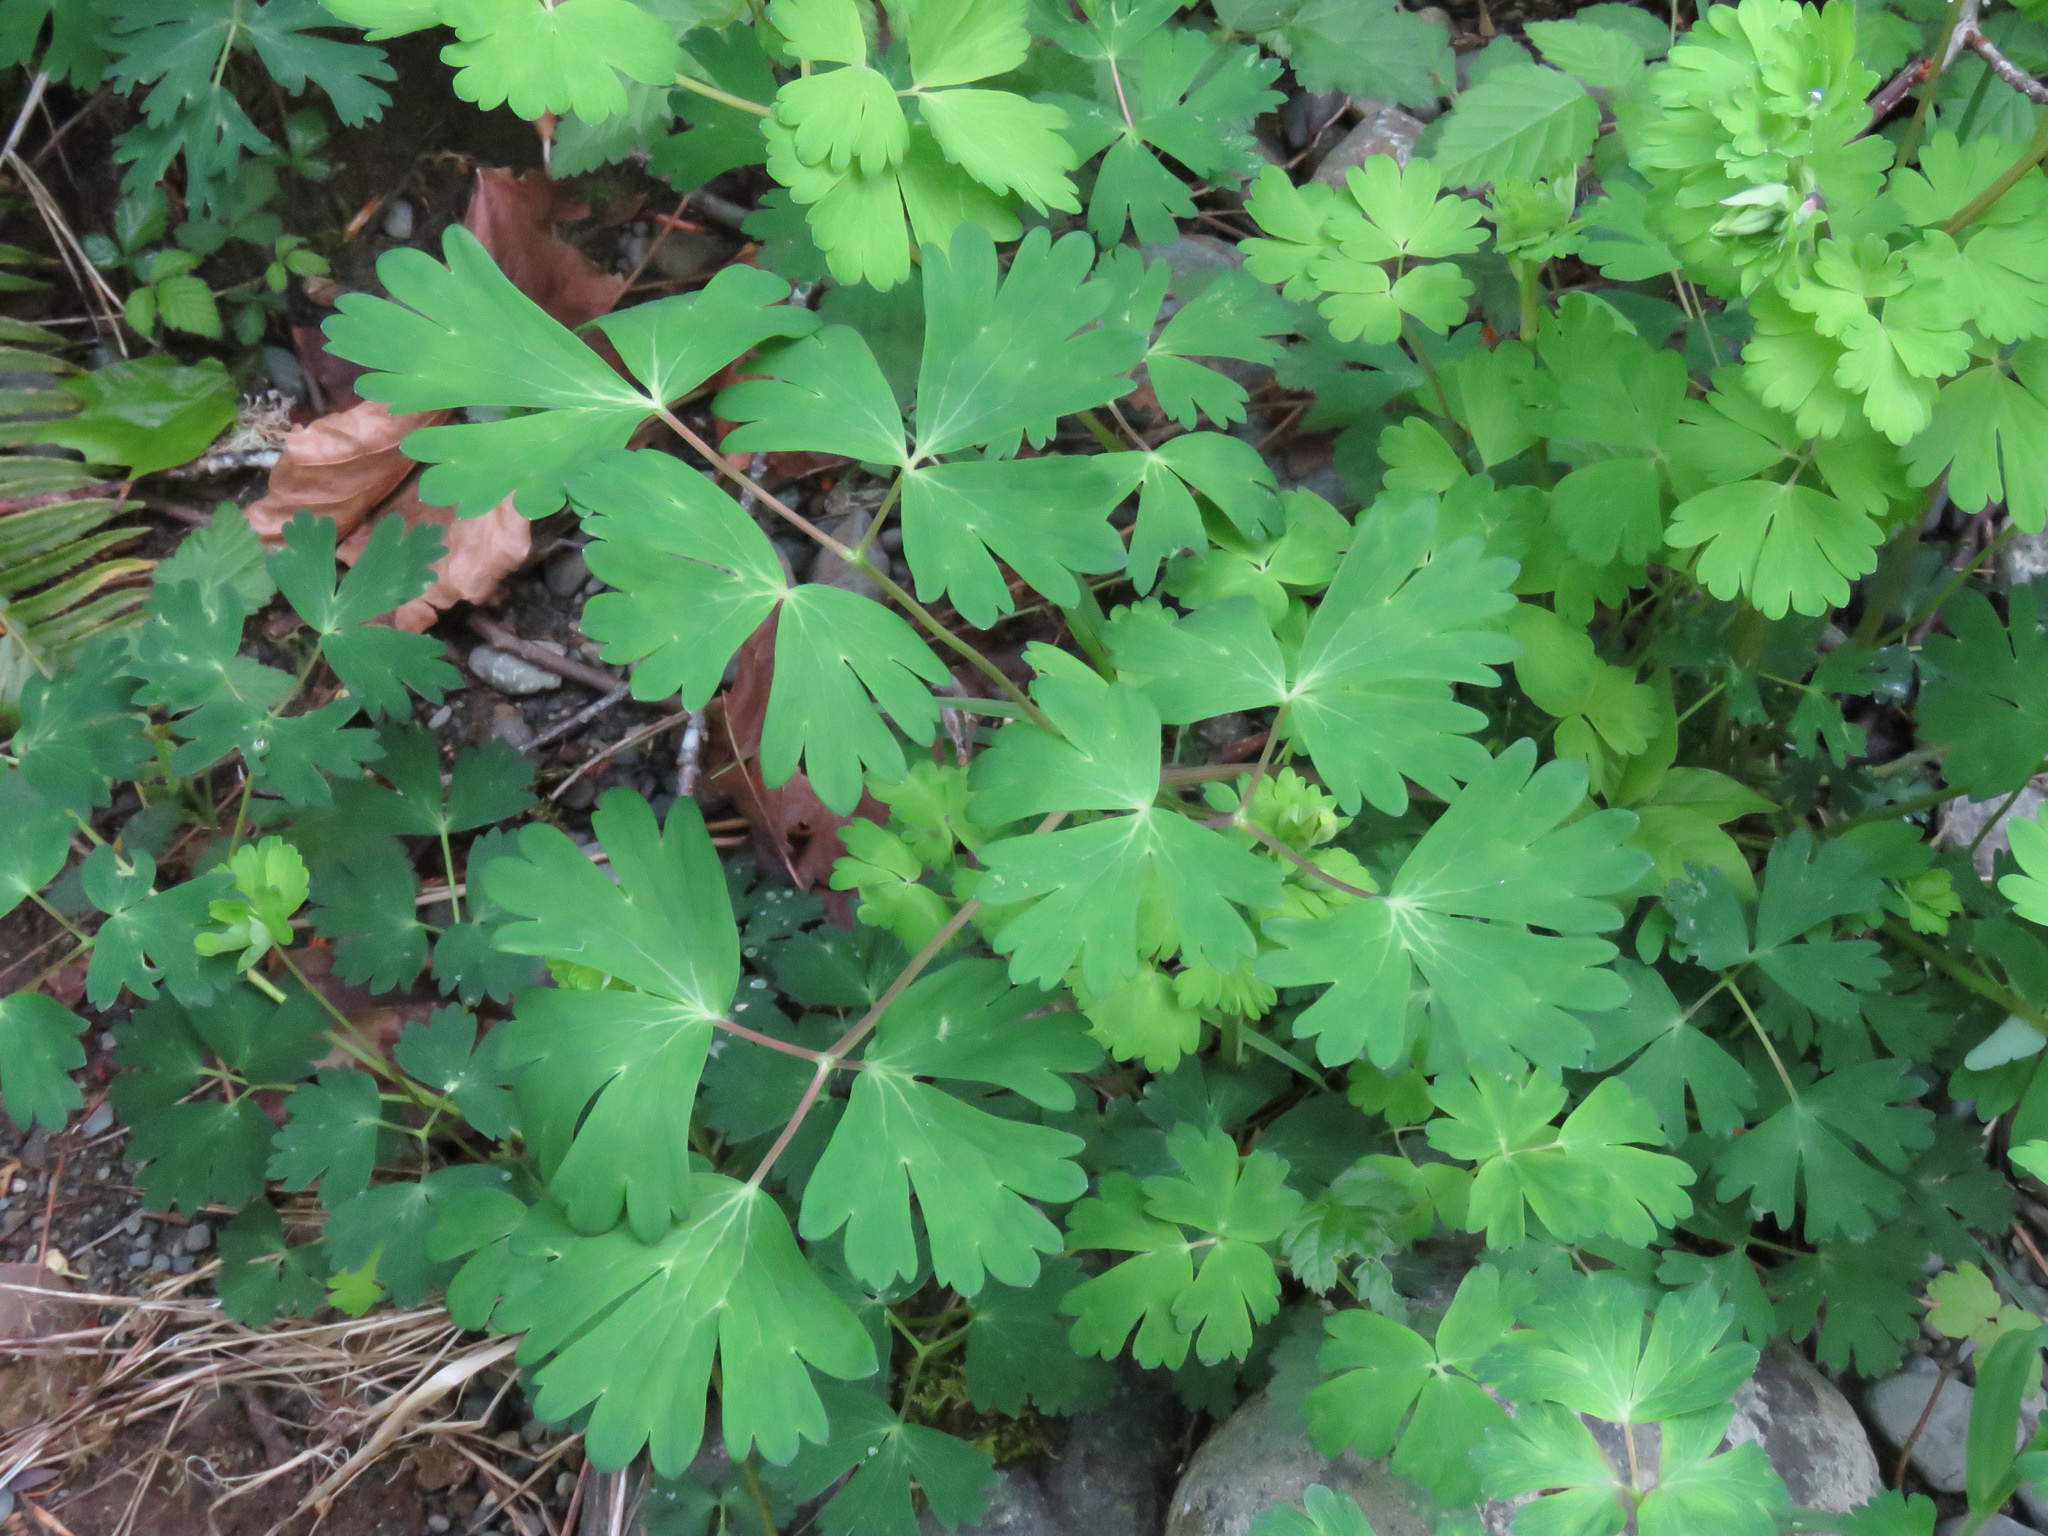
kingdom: Plantae
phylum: Tracheophyta
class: Magnoliopsida
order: Ranunculales
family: Ranunculaceae
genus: Aquilegia
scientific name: Aquilegia formosa
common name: Sitka columbine
